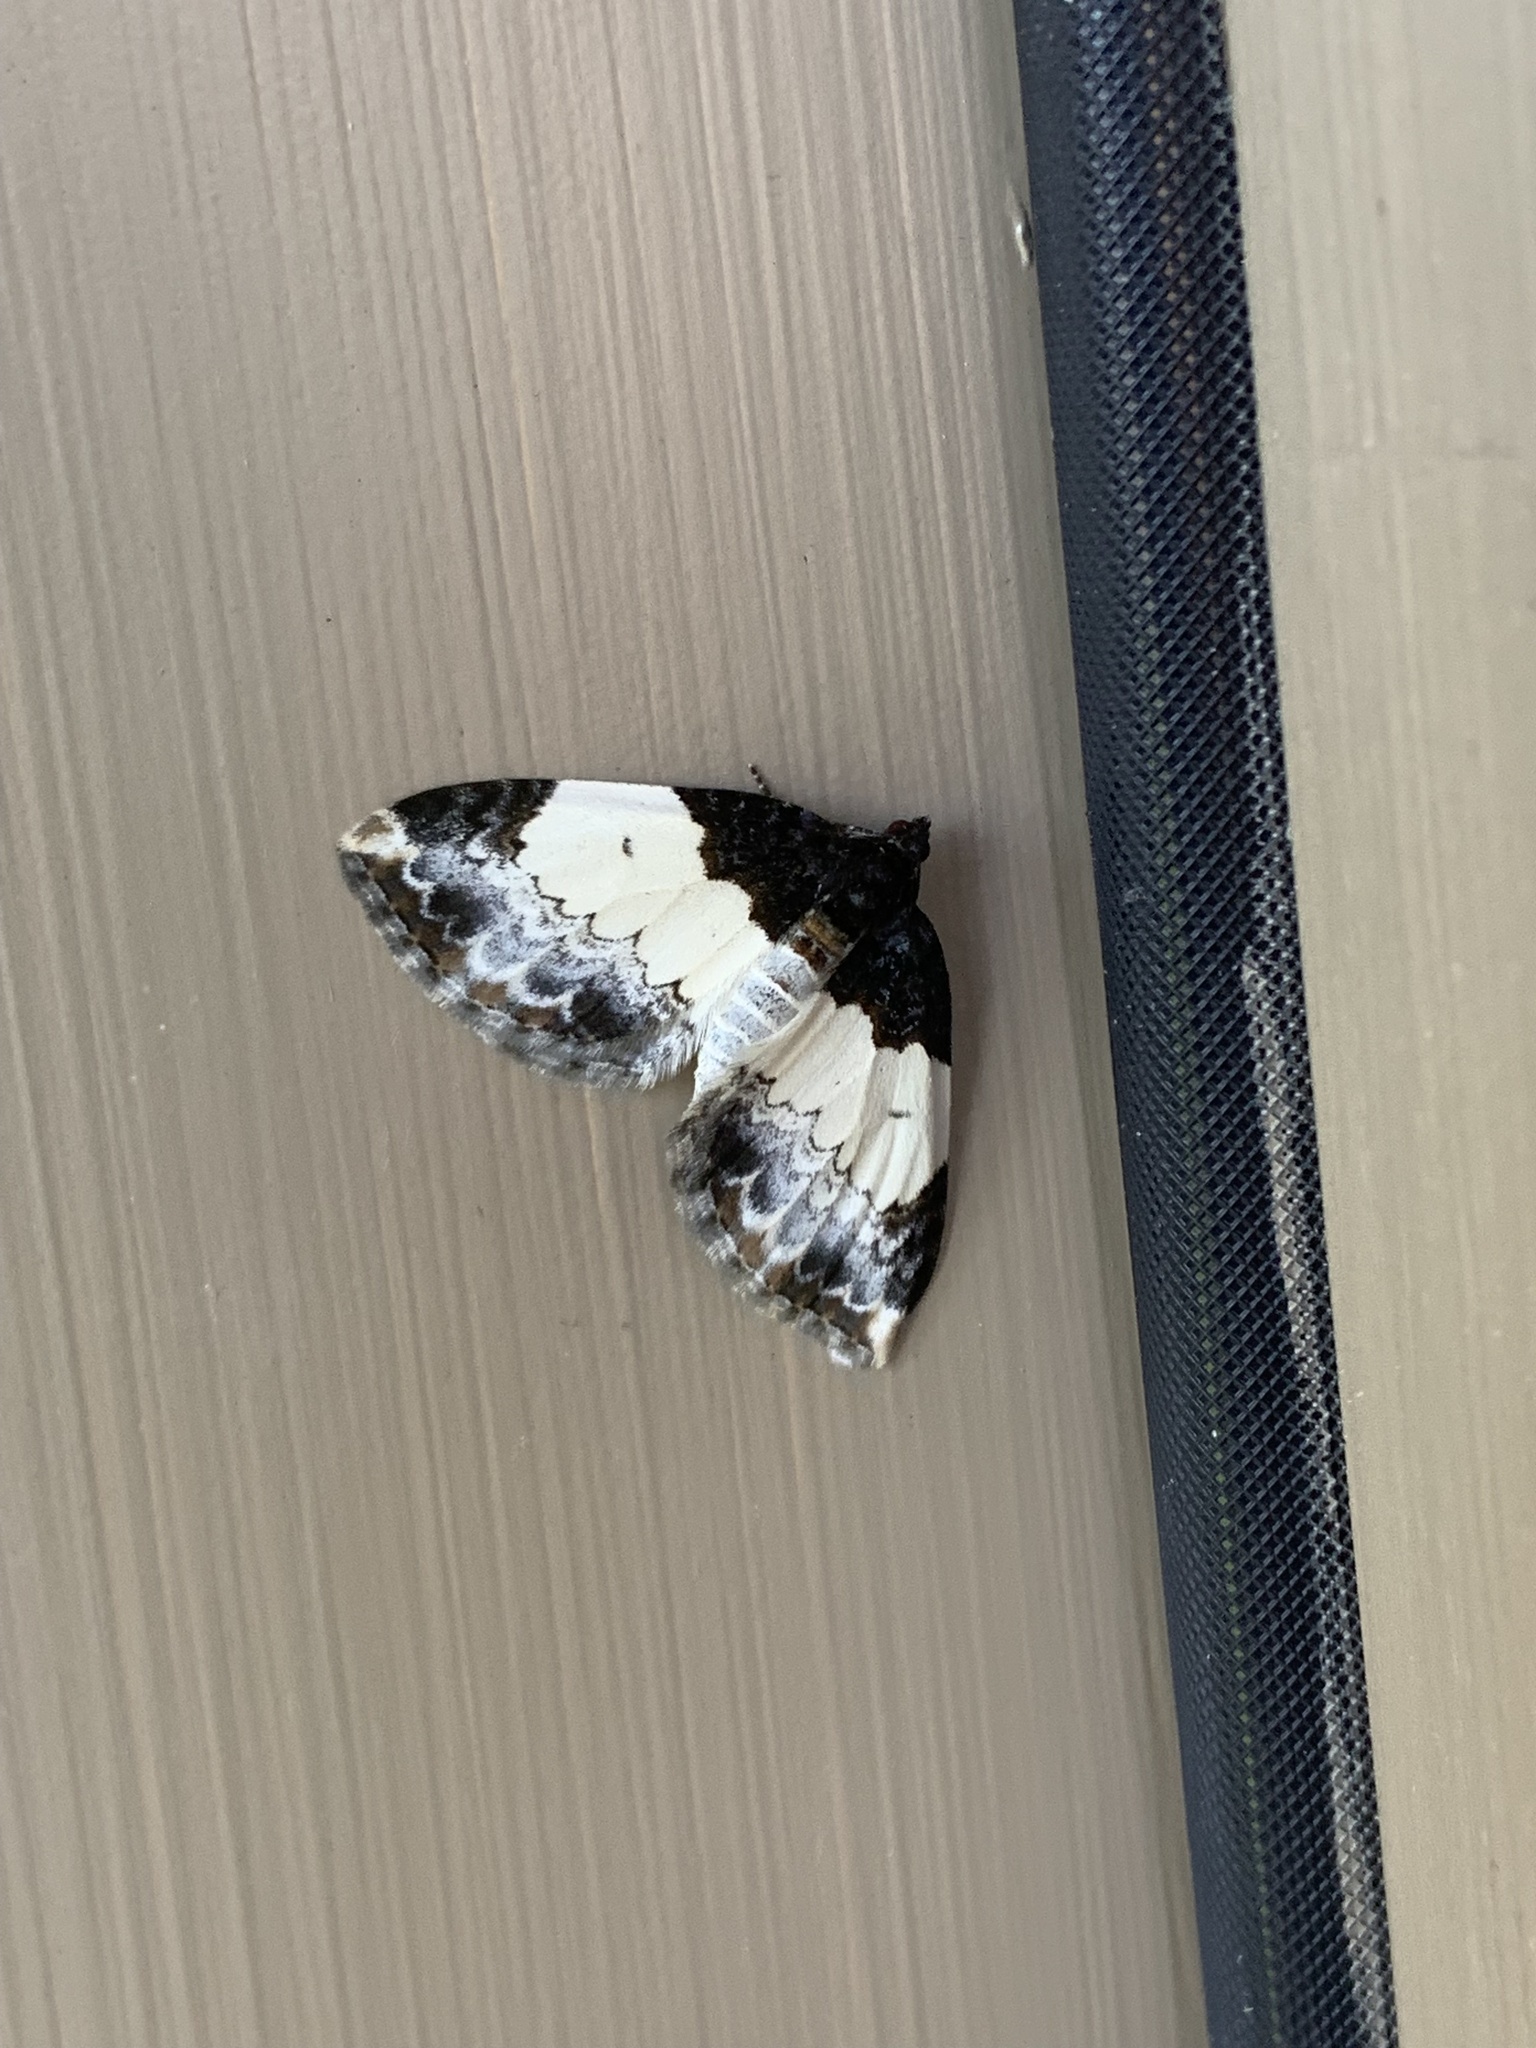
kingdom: Animalia
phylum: Arthropoda
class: Insecta
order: Lepidoptera
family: Geometridae
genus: Mesoleuca
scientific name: Mesoleuca ruficillata
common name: White-ribboned carpet moth
